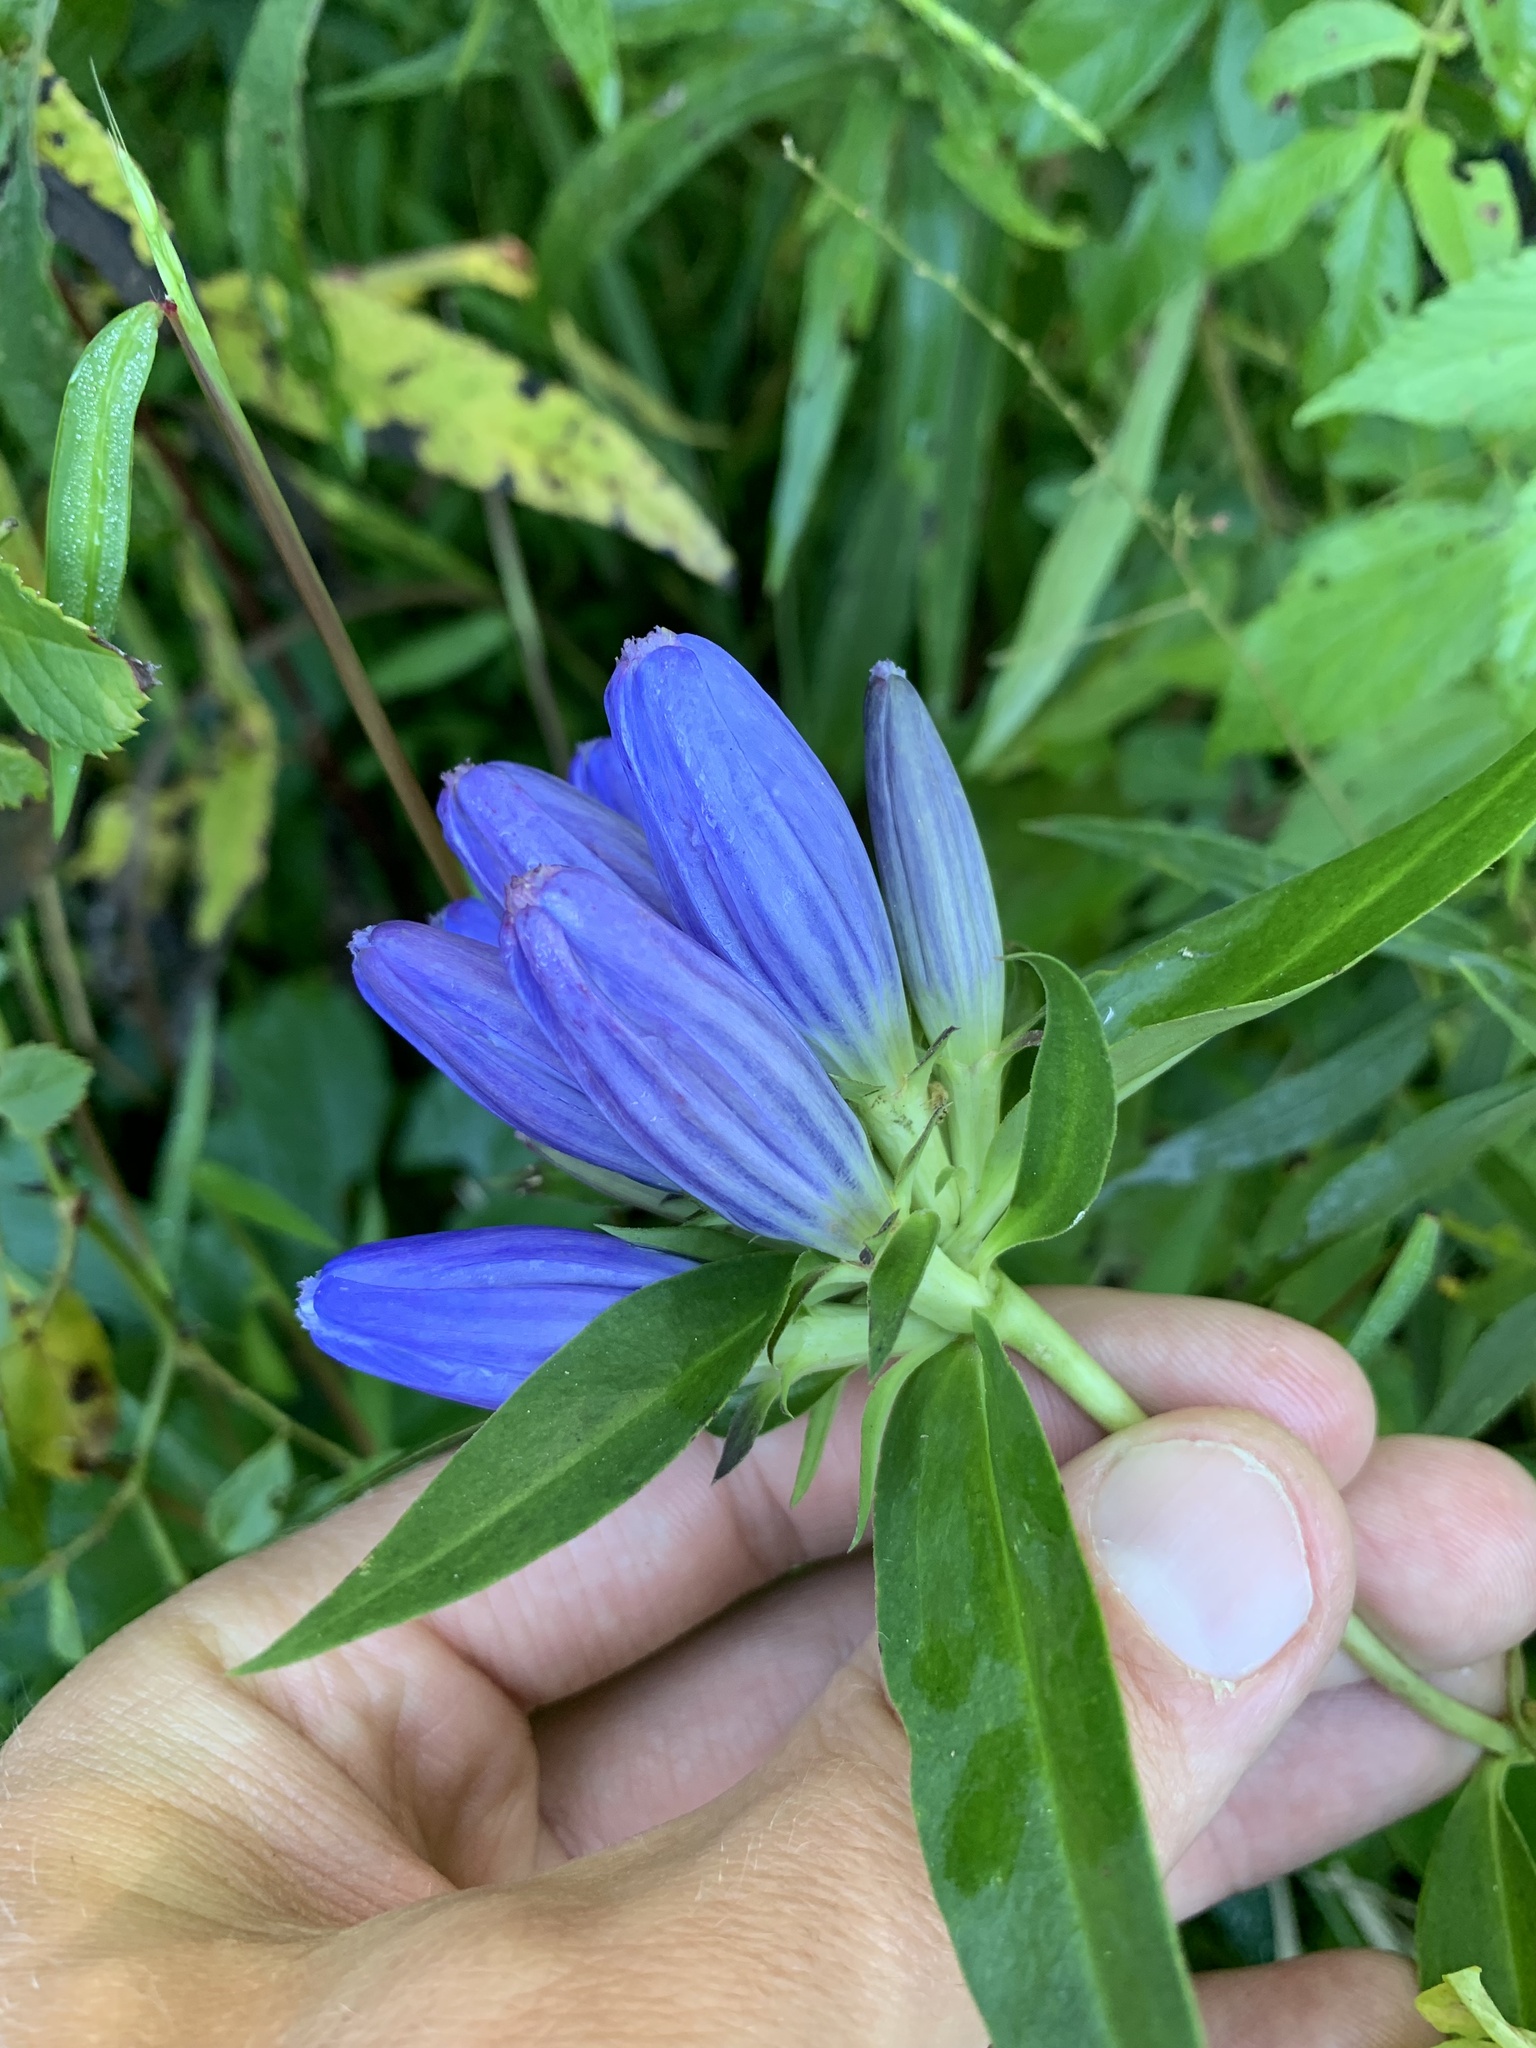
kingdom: Plantae
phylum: Tracheophyta
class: Magnoliopsida
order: Gentianales
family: Gentianaceae
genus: Gentiana
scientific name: Gentiana andrewsii
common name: Bottle gentian
